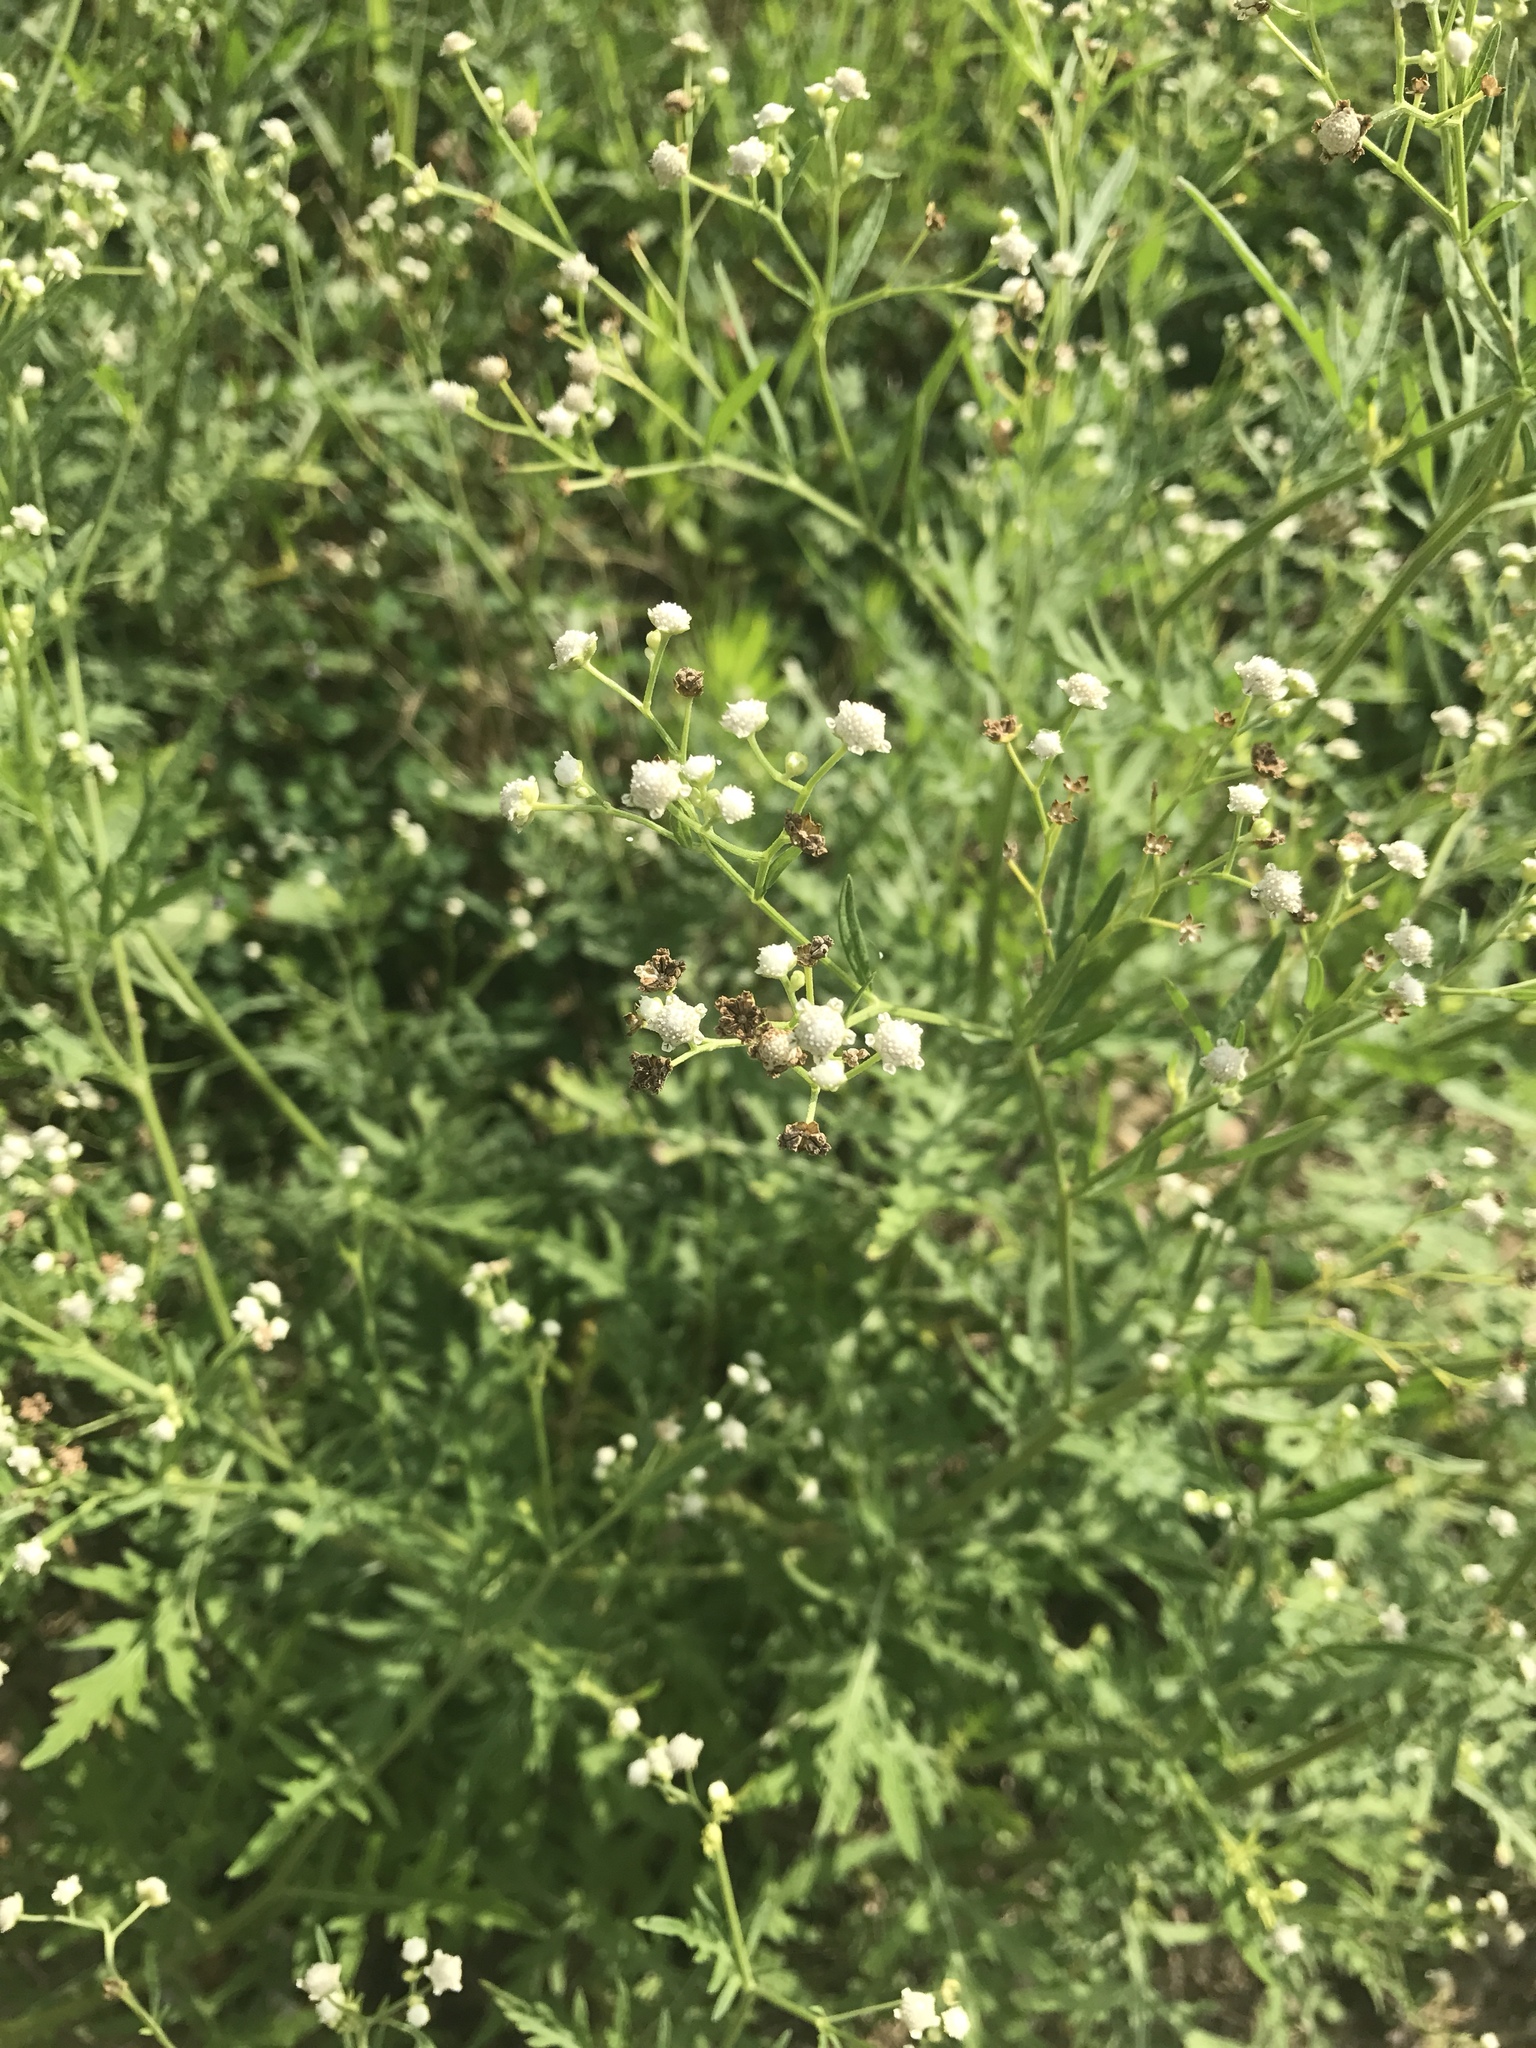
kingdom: Plantae
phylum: Tracheophyta
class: Magnoliopsida
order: Asterales
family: Asteraceae
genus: Parthenium
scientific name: Parthenium hysterophorus
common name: Santa maria feverfew
